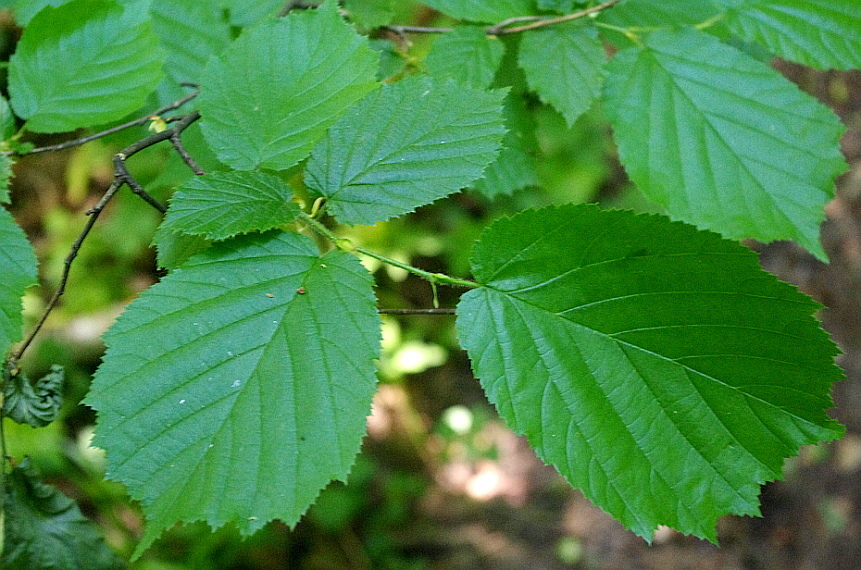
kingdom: Plantae
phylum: Tracheophyta
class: Magnoliopsida
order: Fagales
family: Betulaceae
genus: Corylus
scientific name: Corylus avellana
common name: European hazel
